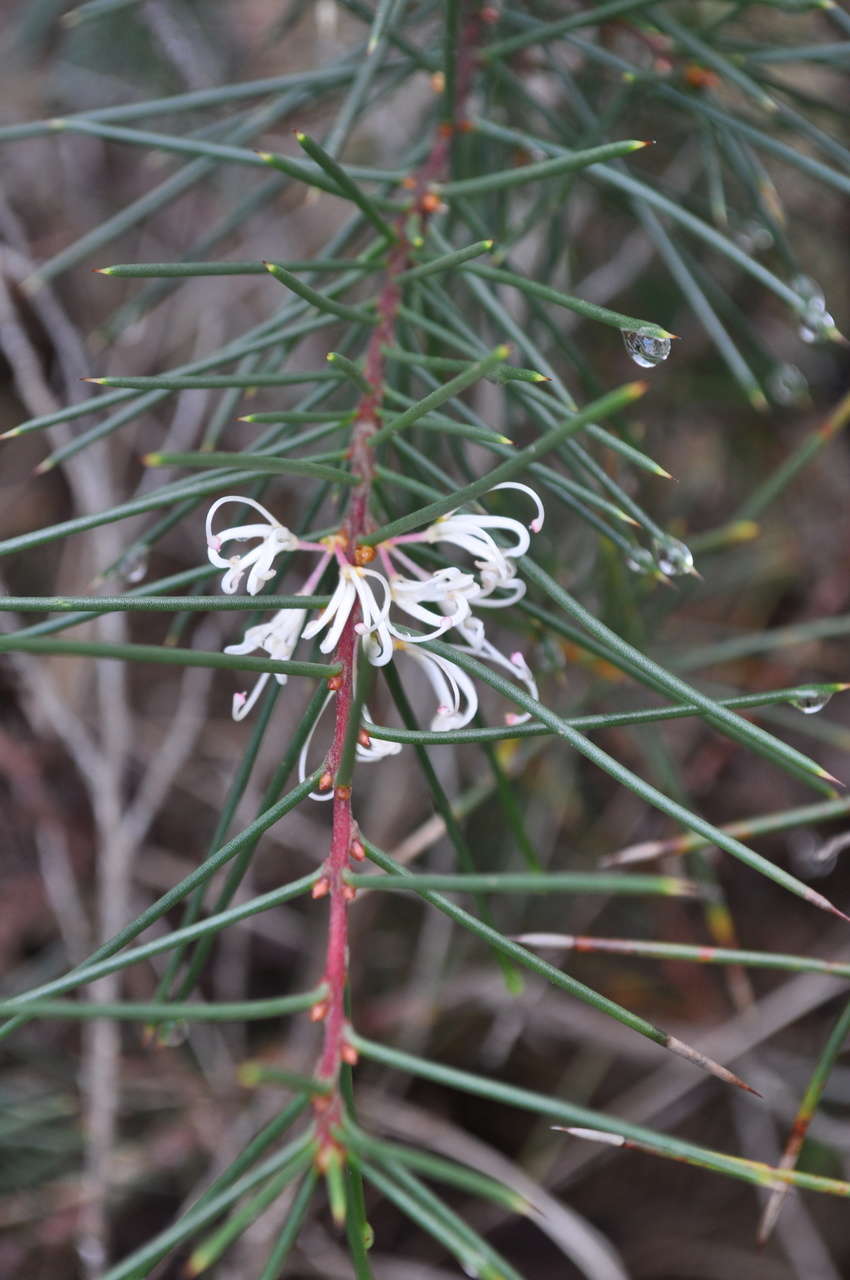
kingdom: Plantae
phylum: Tracheophyta
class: Magnoliopsida
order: Proteales
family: Proteaceae
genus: Hakea
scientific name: Hakea decurrens
